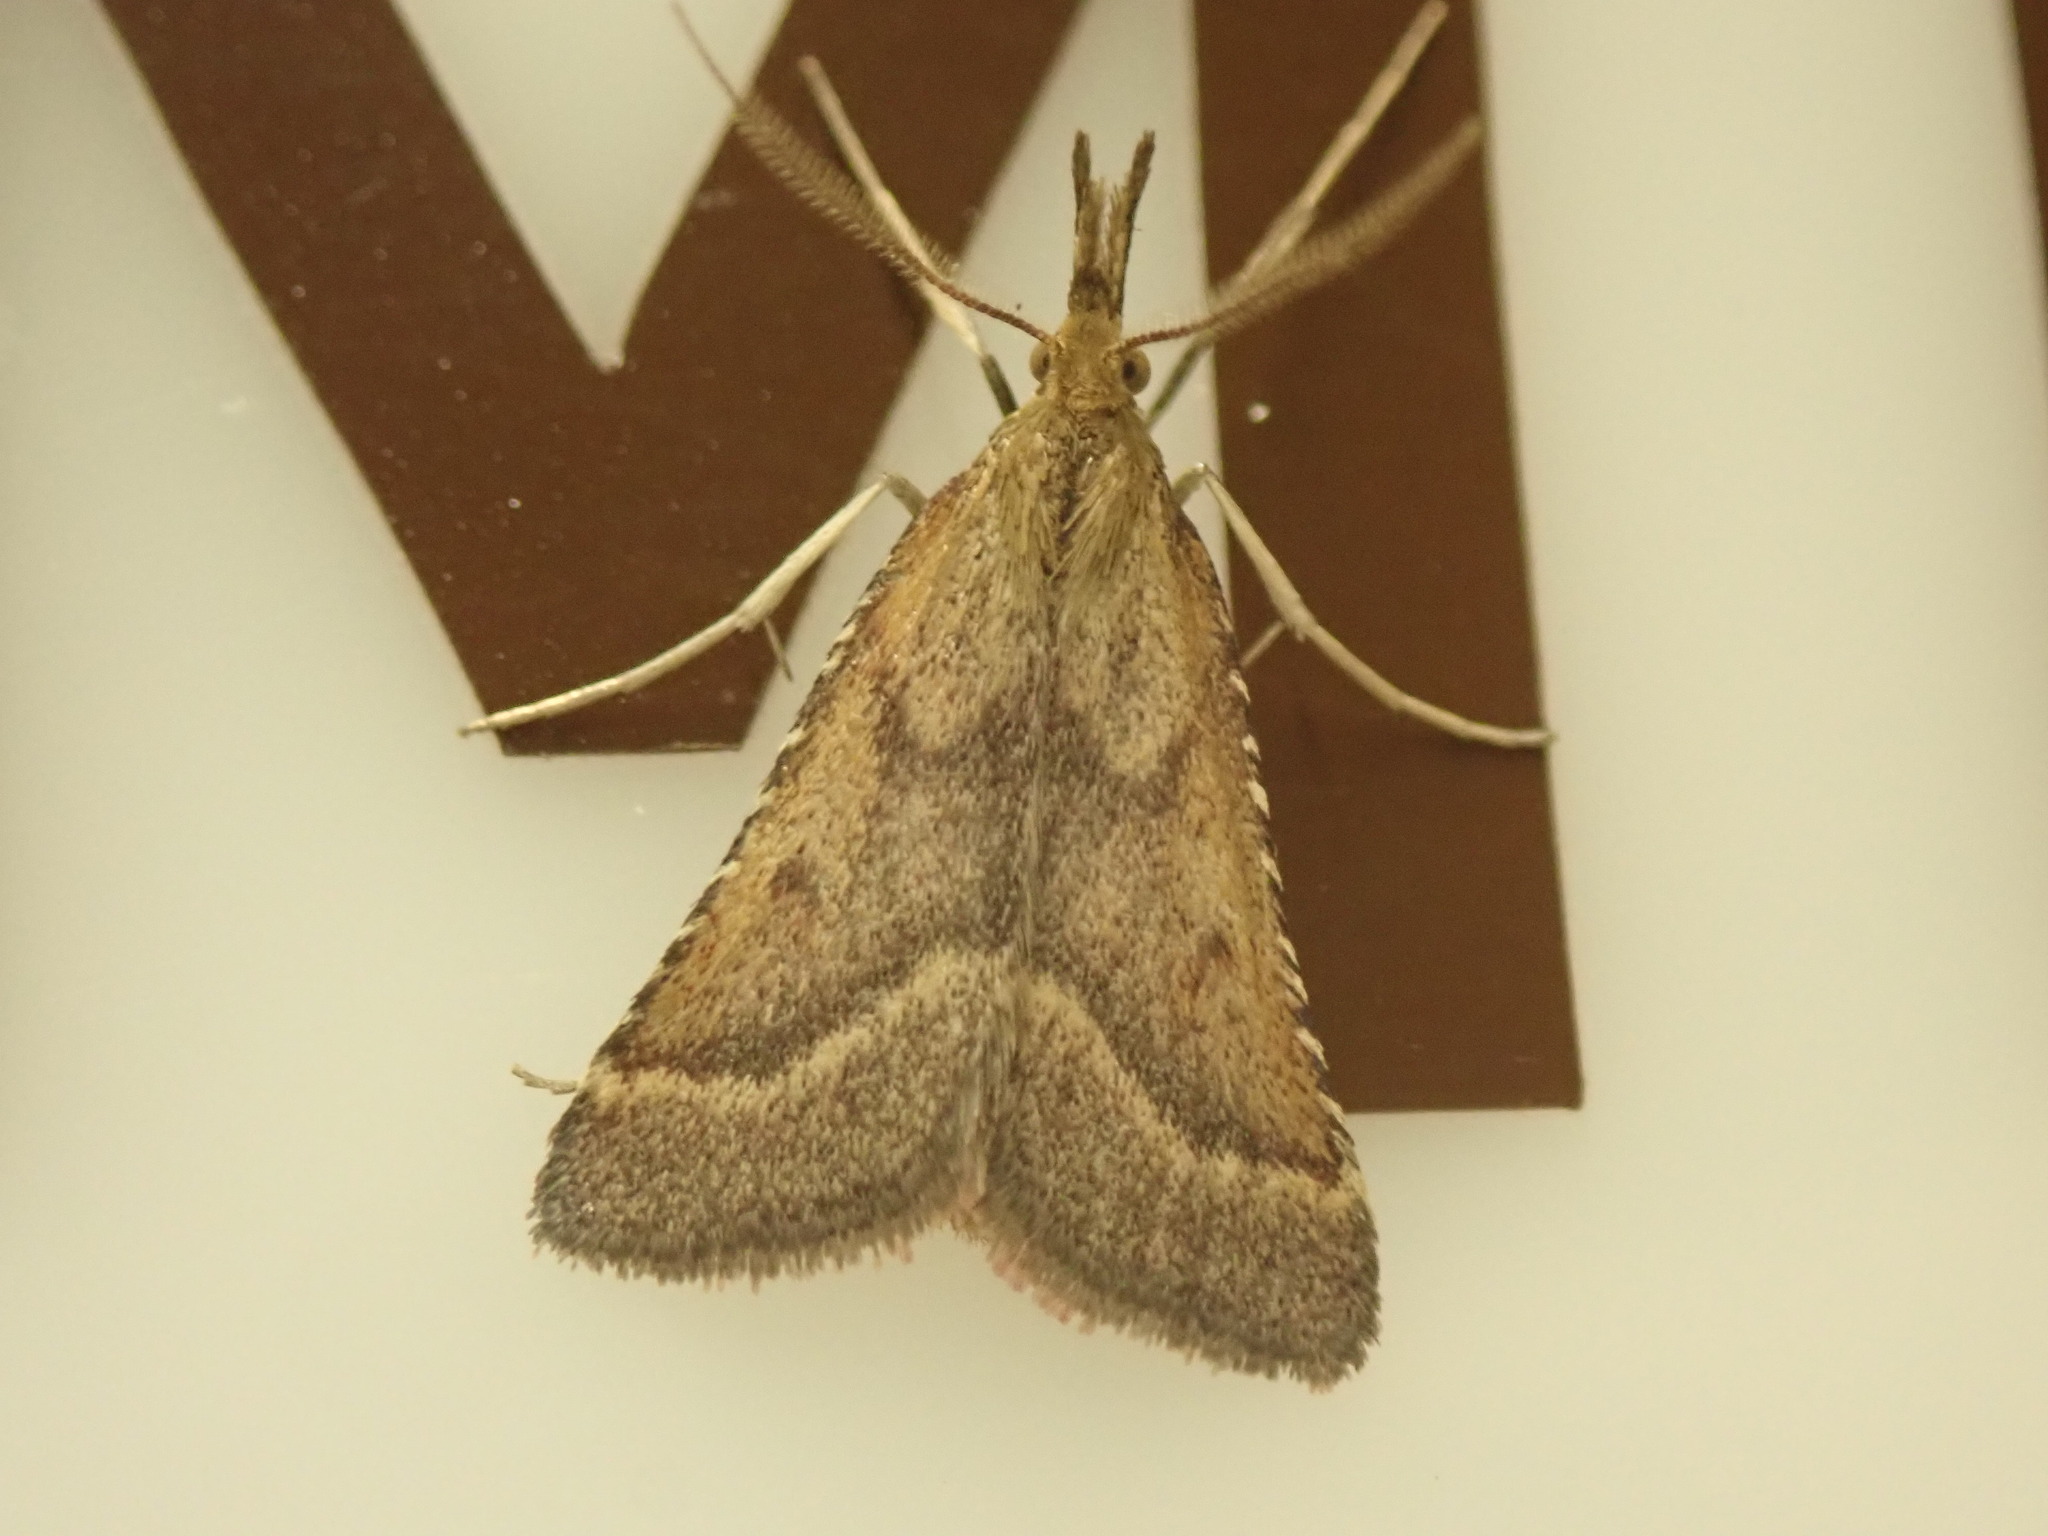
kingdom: Animalia
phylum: Arthropoda
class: Insecta
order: Lepidoptera
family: Pyralidae
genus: Synaphe
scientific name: Synaphe punctalis
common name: Long-legged tabby
